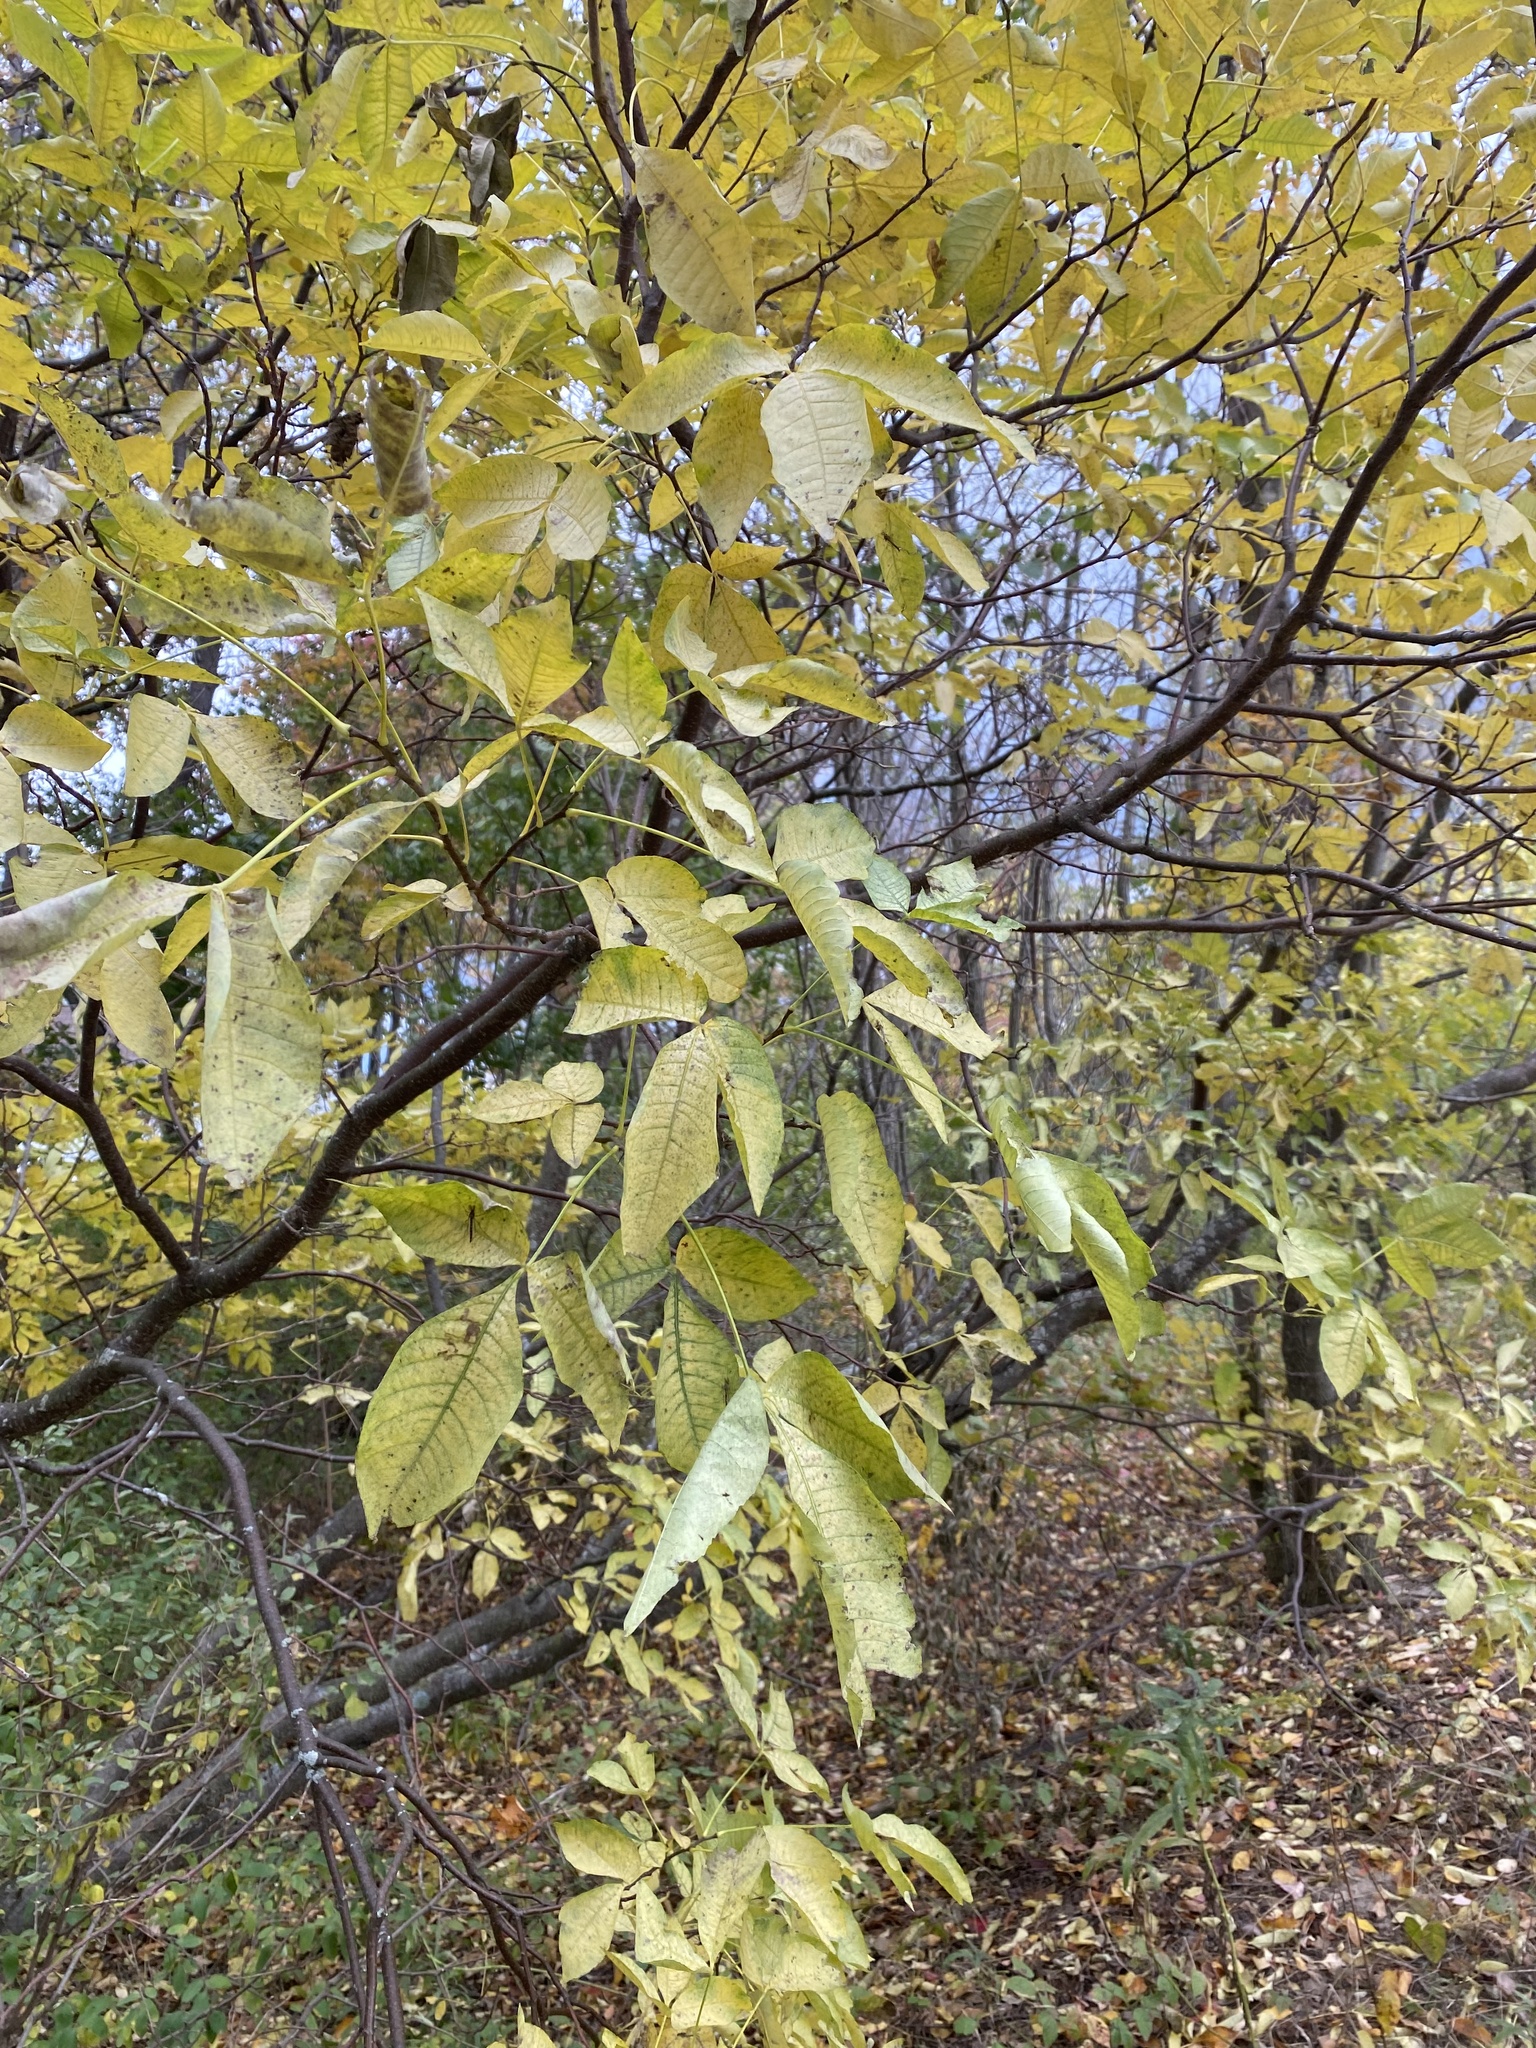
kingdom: Plantae
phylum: Tracheophyta
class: Magnoliopsida
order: Sapindales
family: Rutaceae
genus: Ptelea
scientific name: Ptelea trifoliata
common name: Common hop-tree
